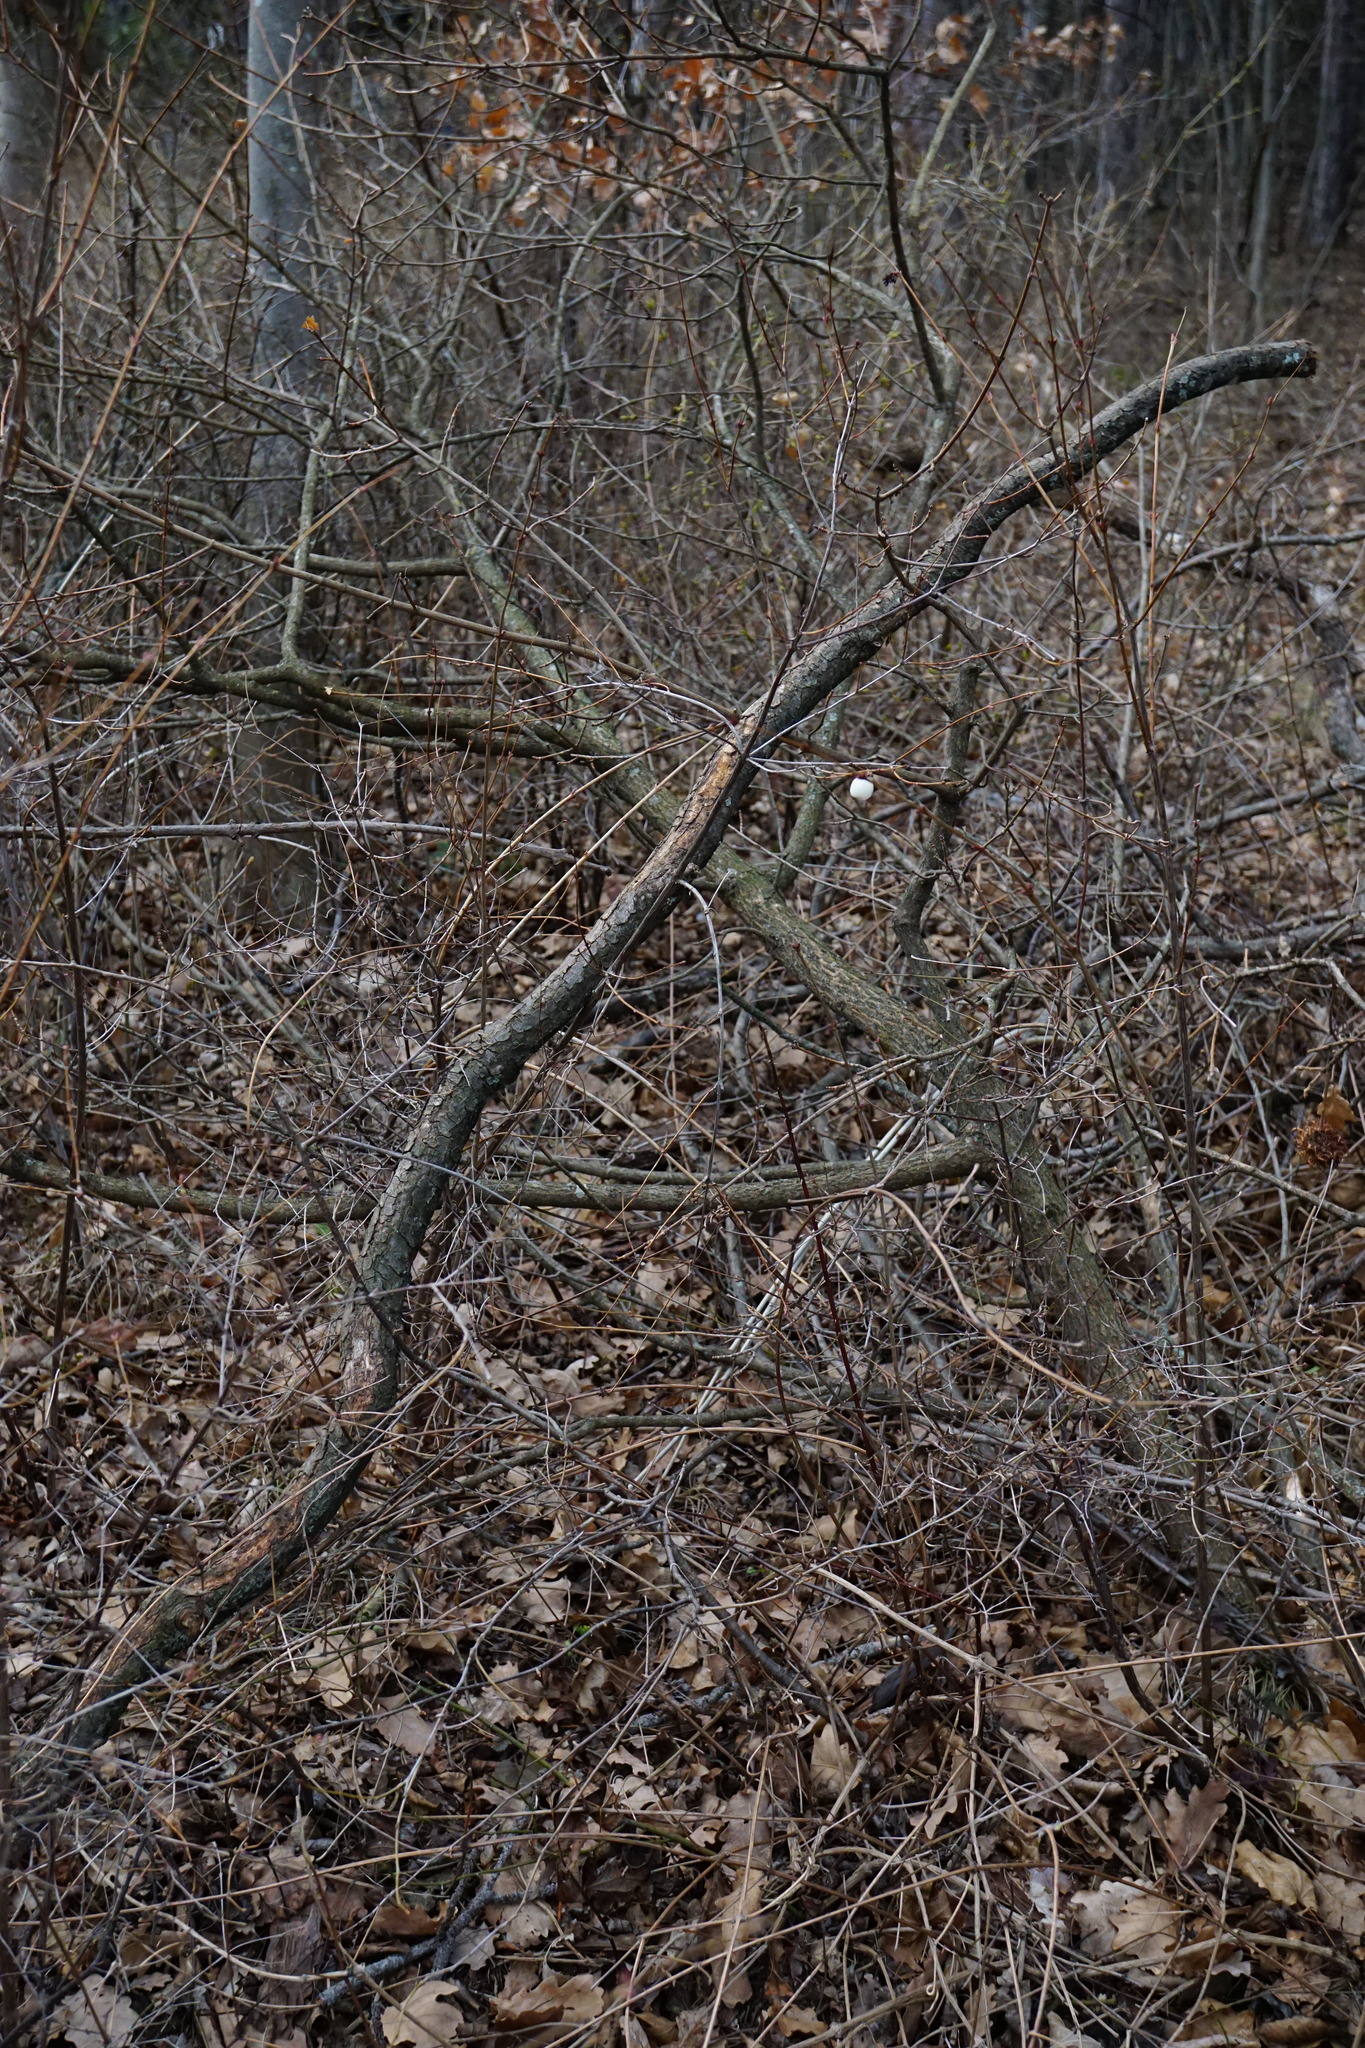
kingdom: Plantae
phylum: Tracheophyta
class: Magnoliopsida
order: Dipsacales
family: Caprifoliaceae
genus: Symphoricarpos
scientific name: Symphoricarpos albus
